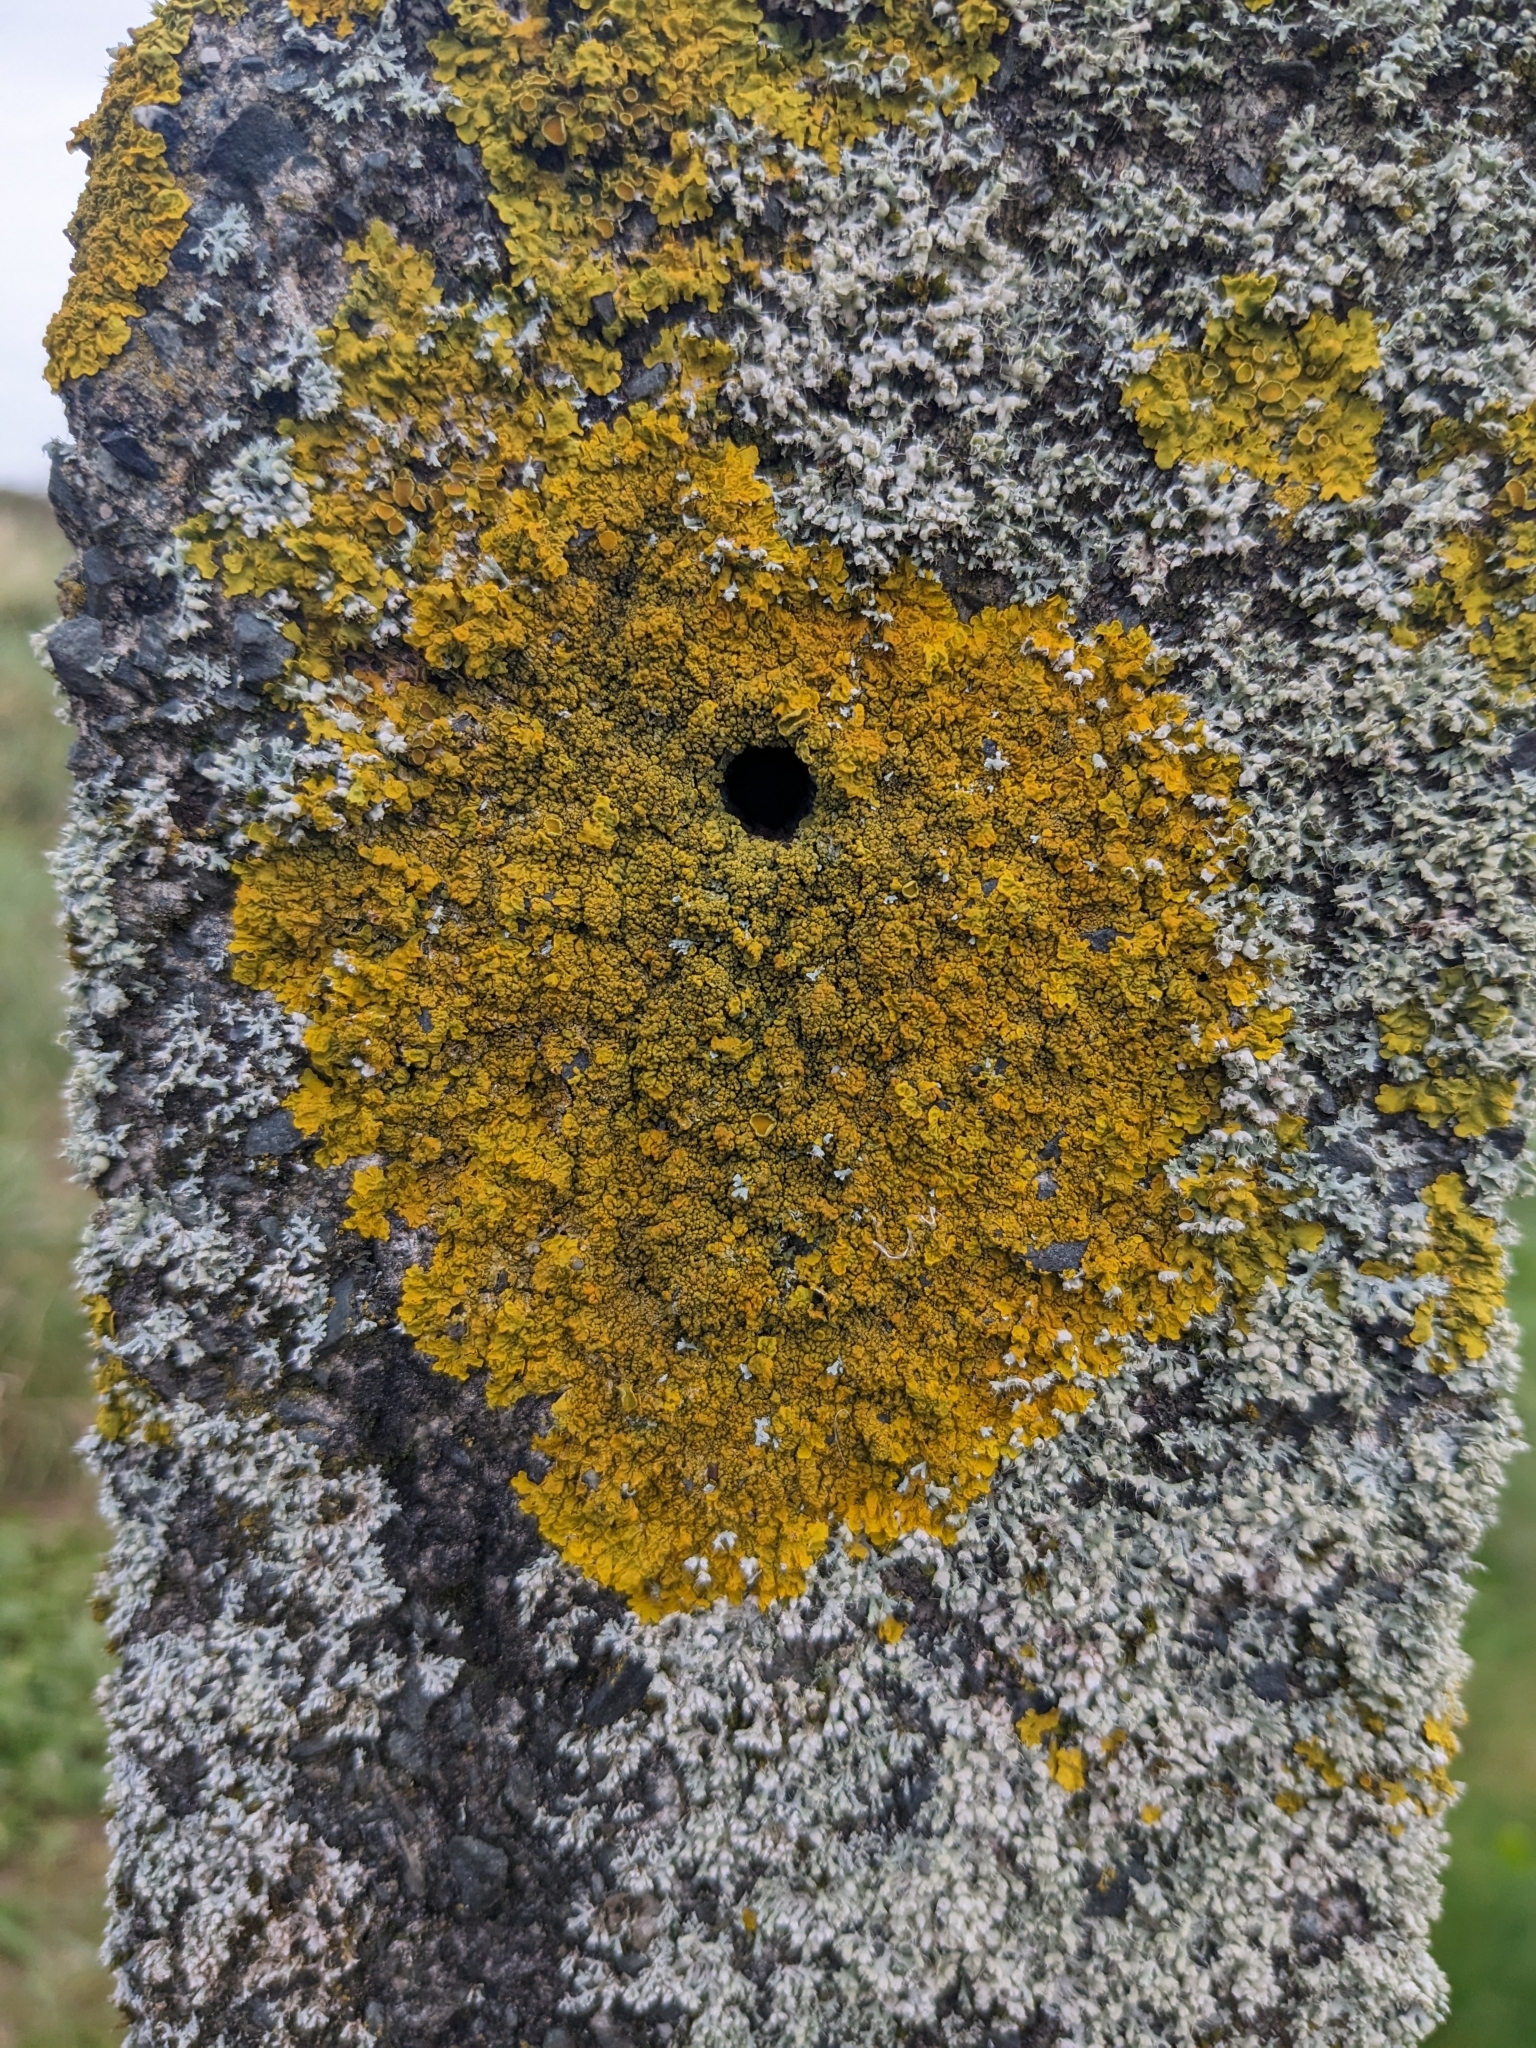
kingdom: Fungi
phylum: Ascomycota
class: Lecanoromycetes
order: Teloschistales
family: Teloschistaceae
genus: Xanthoria
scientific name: Xanthoria calcicola
